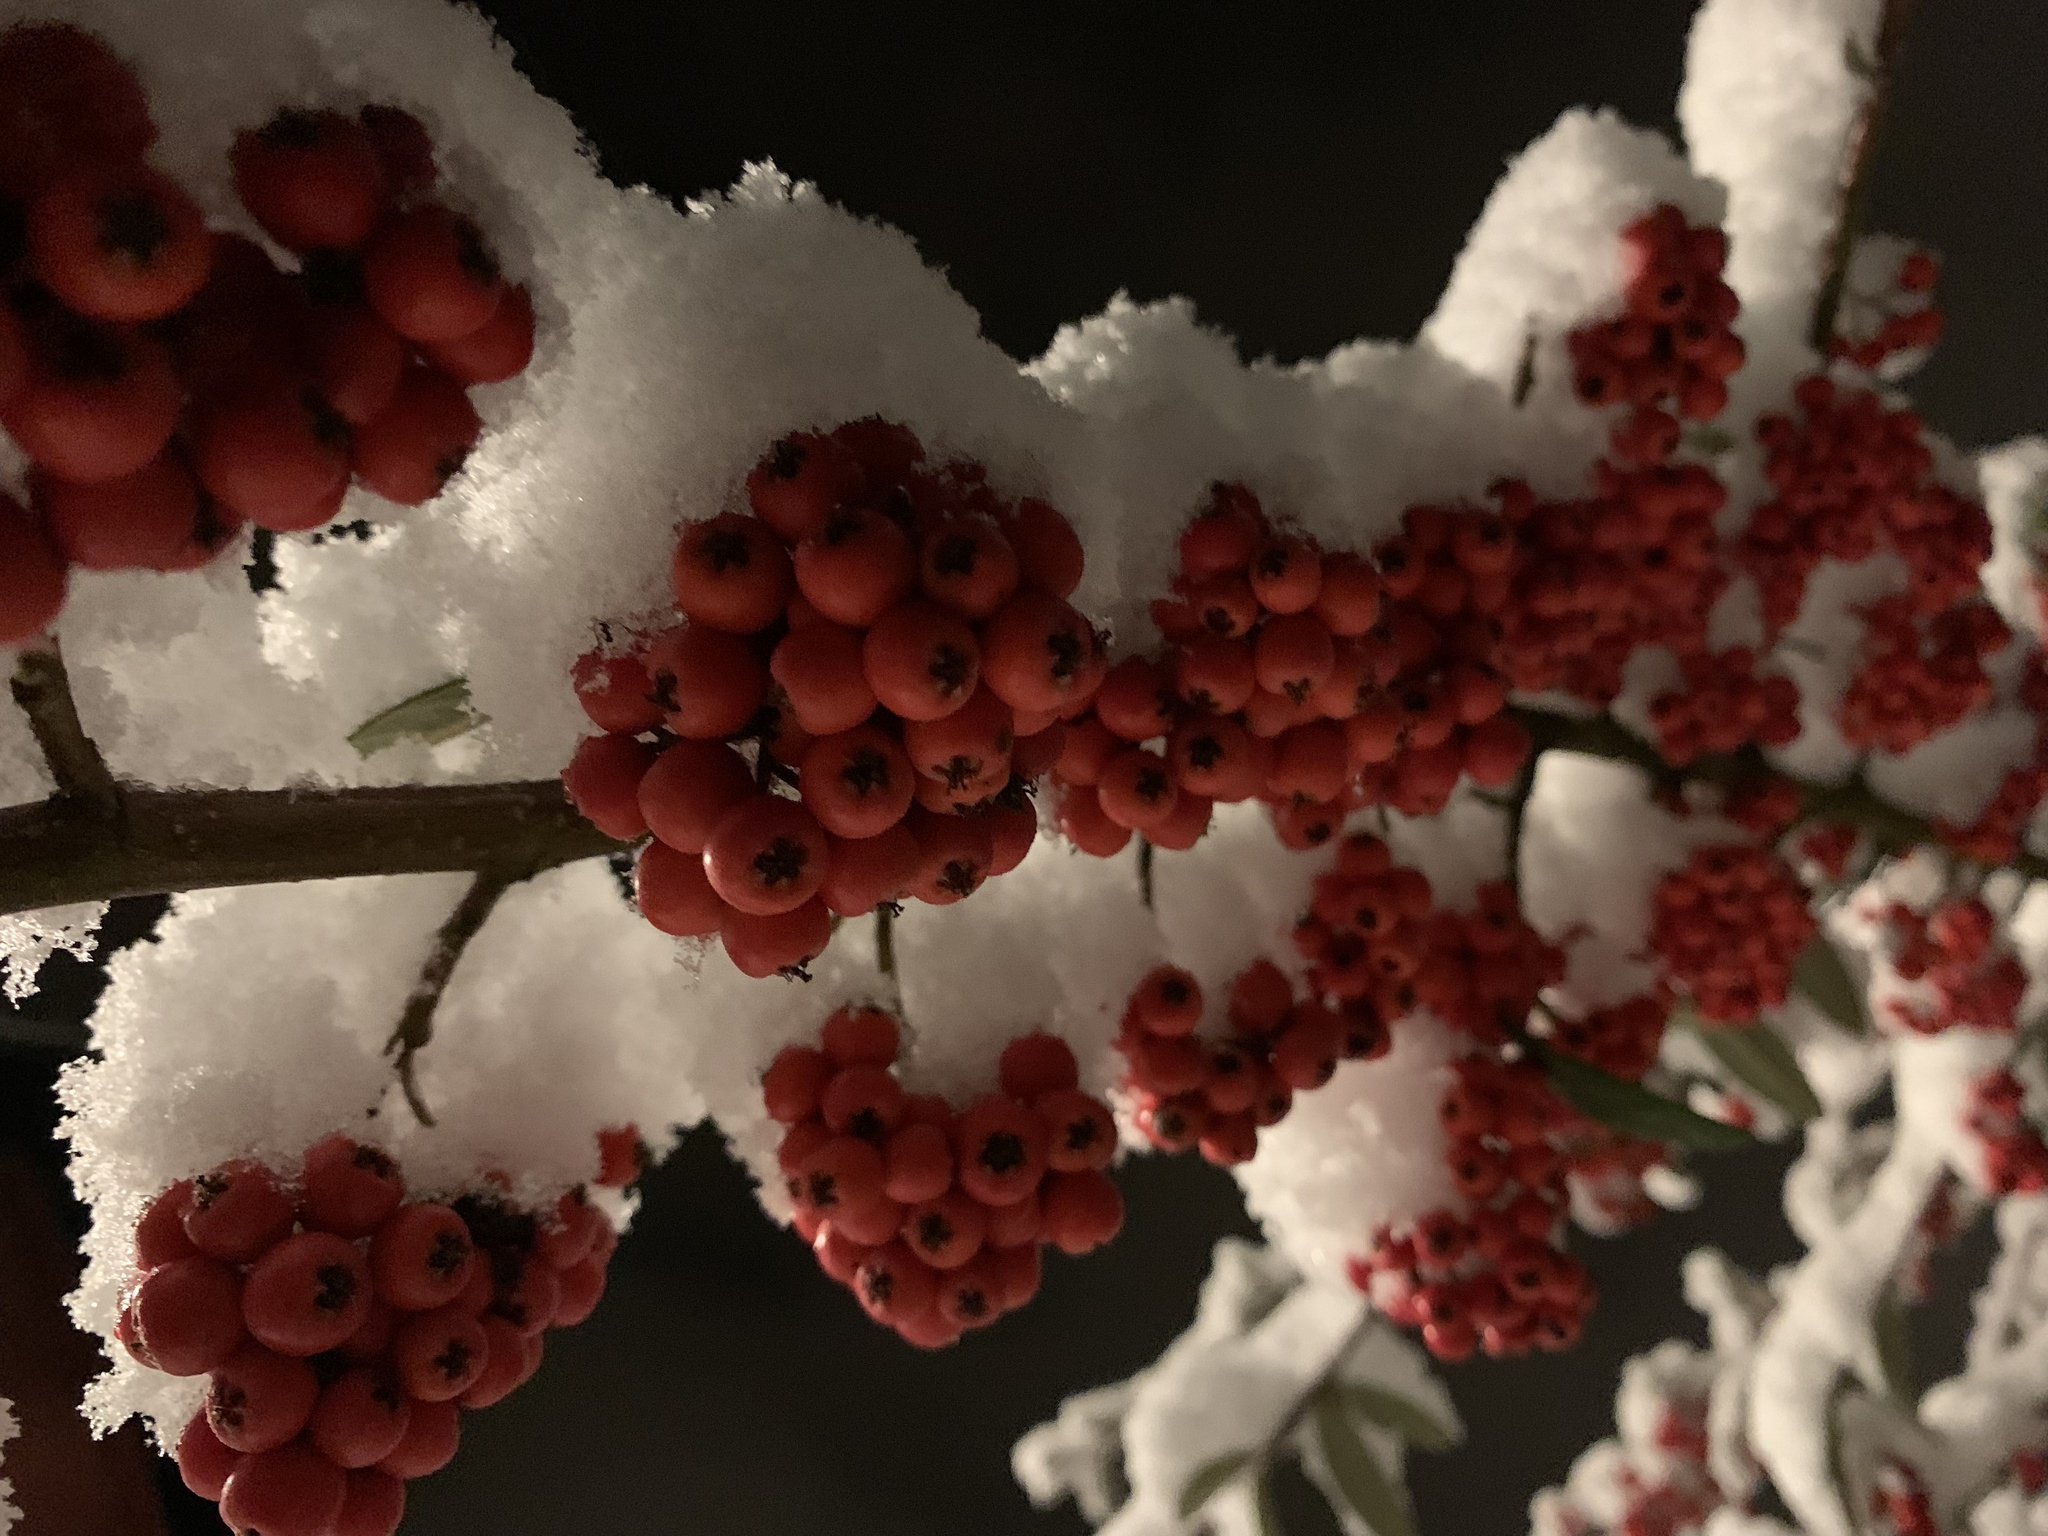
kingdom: Plantae
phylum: Tracheophyta
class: Magnoliopsida
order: Rosales
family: Rosaceae
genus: Pyracantha
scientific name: Pyracantha coccinea
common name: Firethorn
